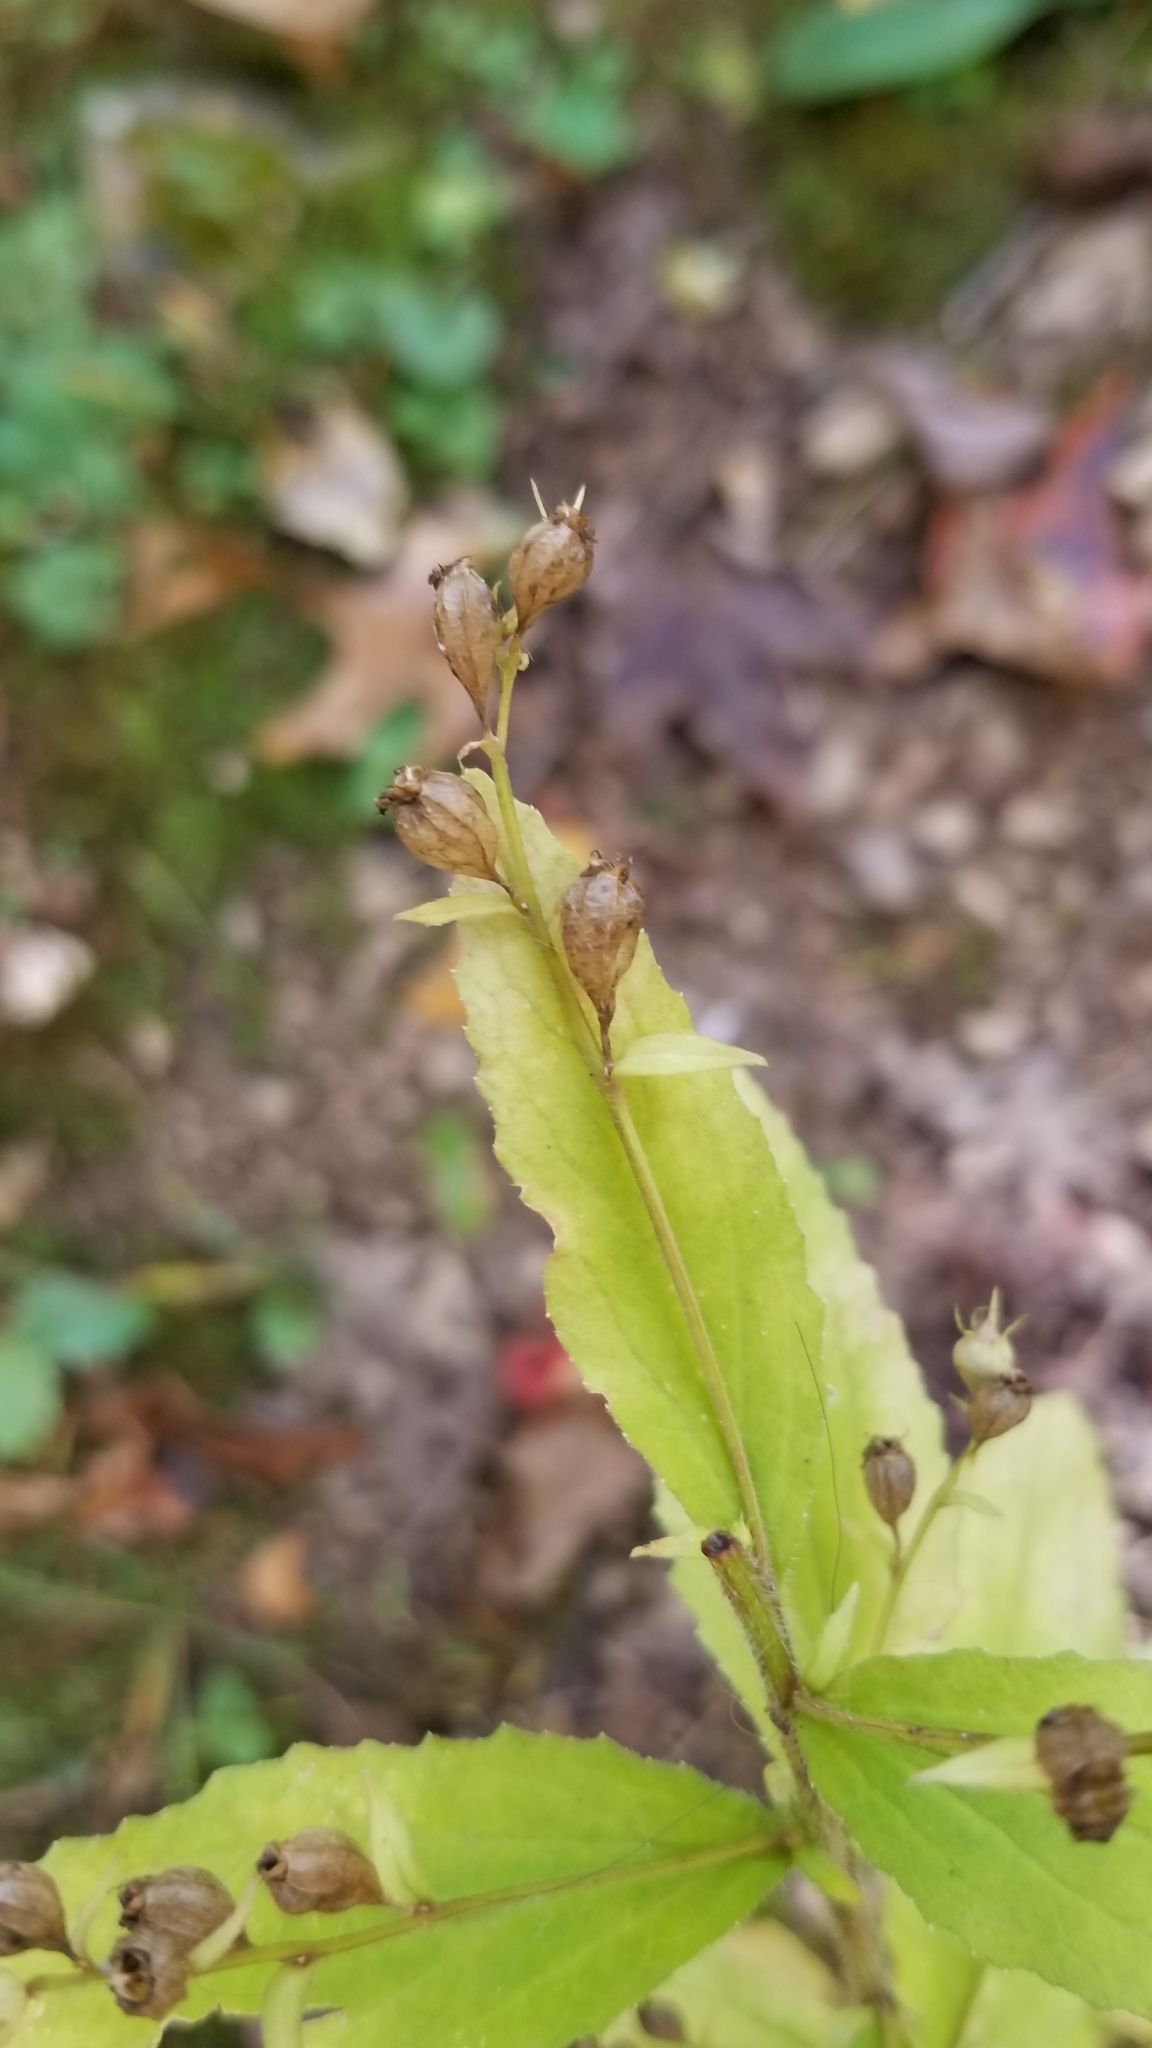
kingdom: Plantae
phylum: Tracheophyta
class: Magnoliopsida
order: Asterales
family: Campanulaceae
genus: Lobelia
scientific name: Lobelia inflata
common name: Indian tobacco
